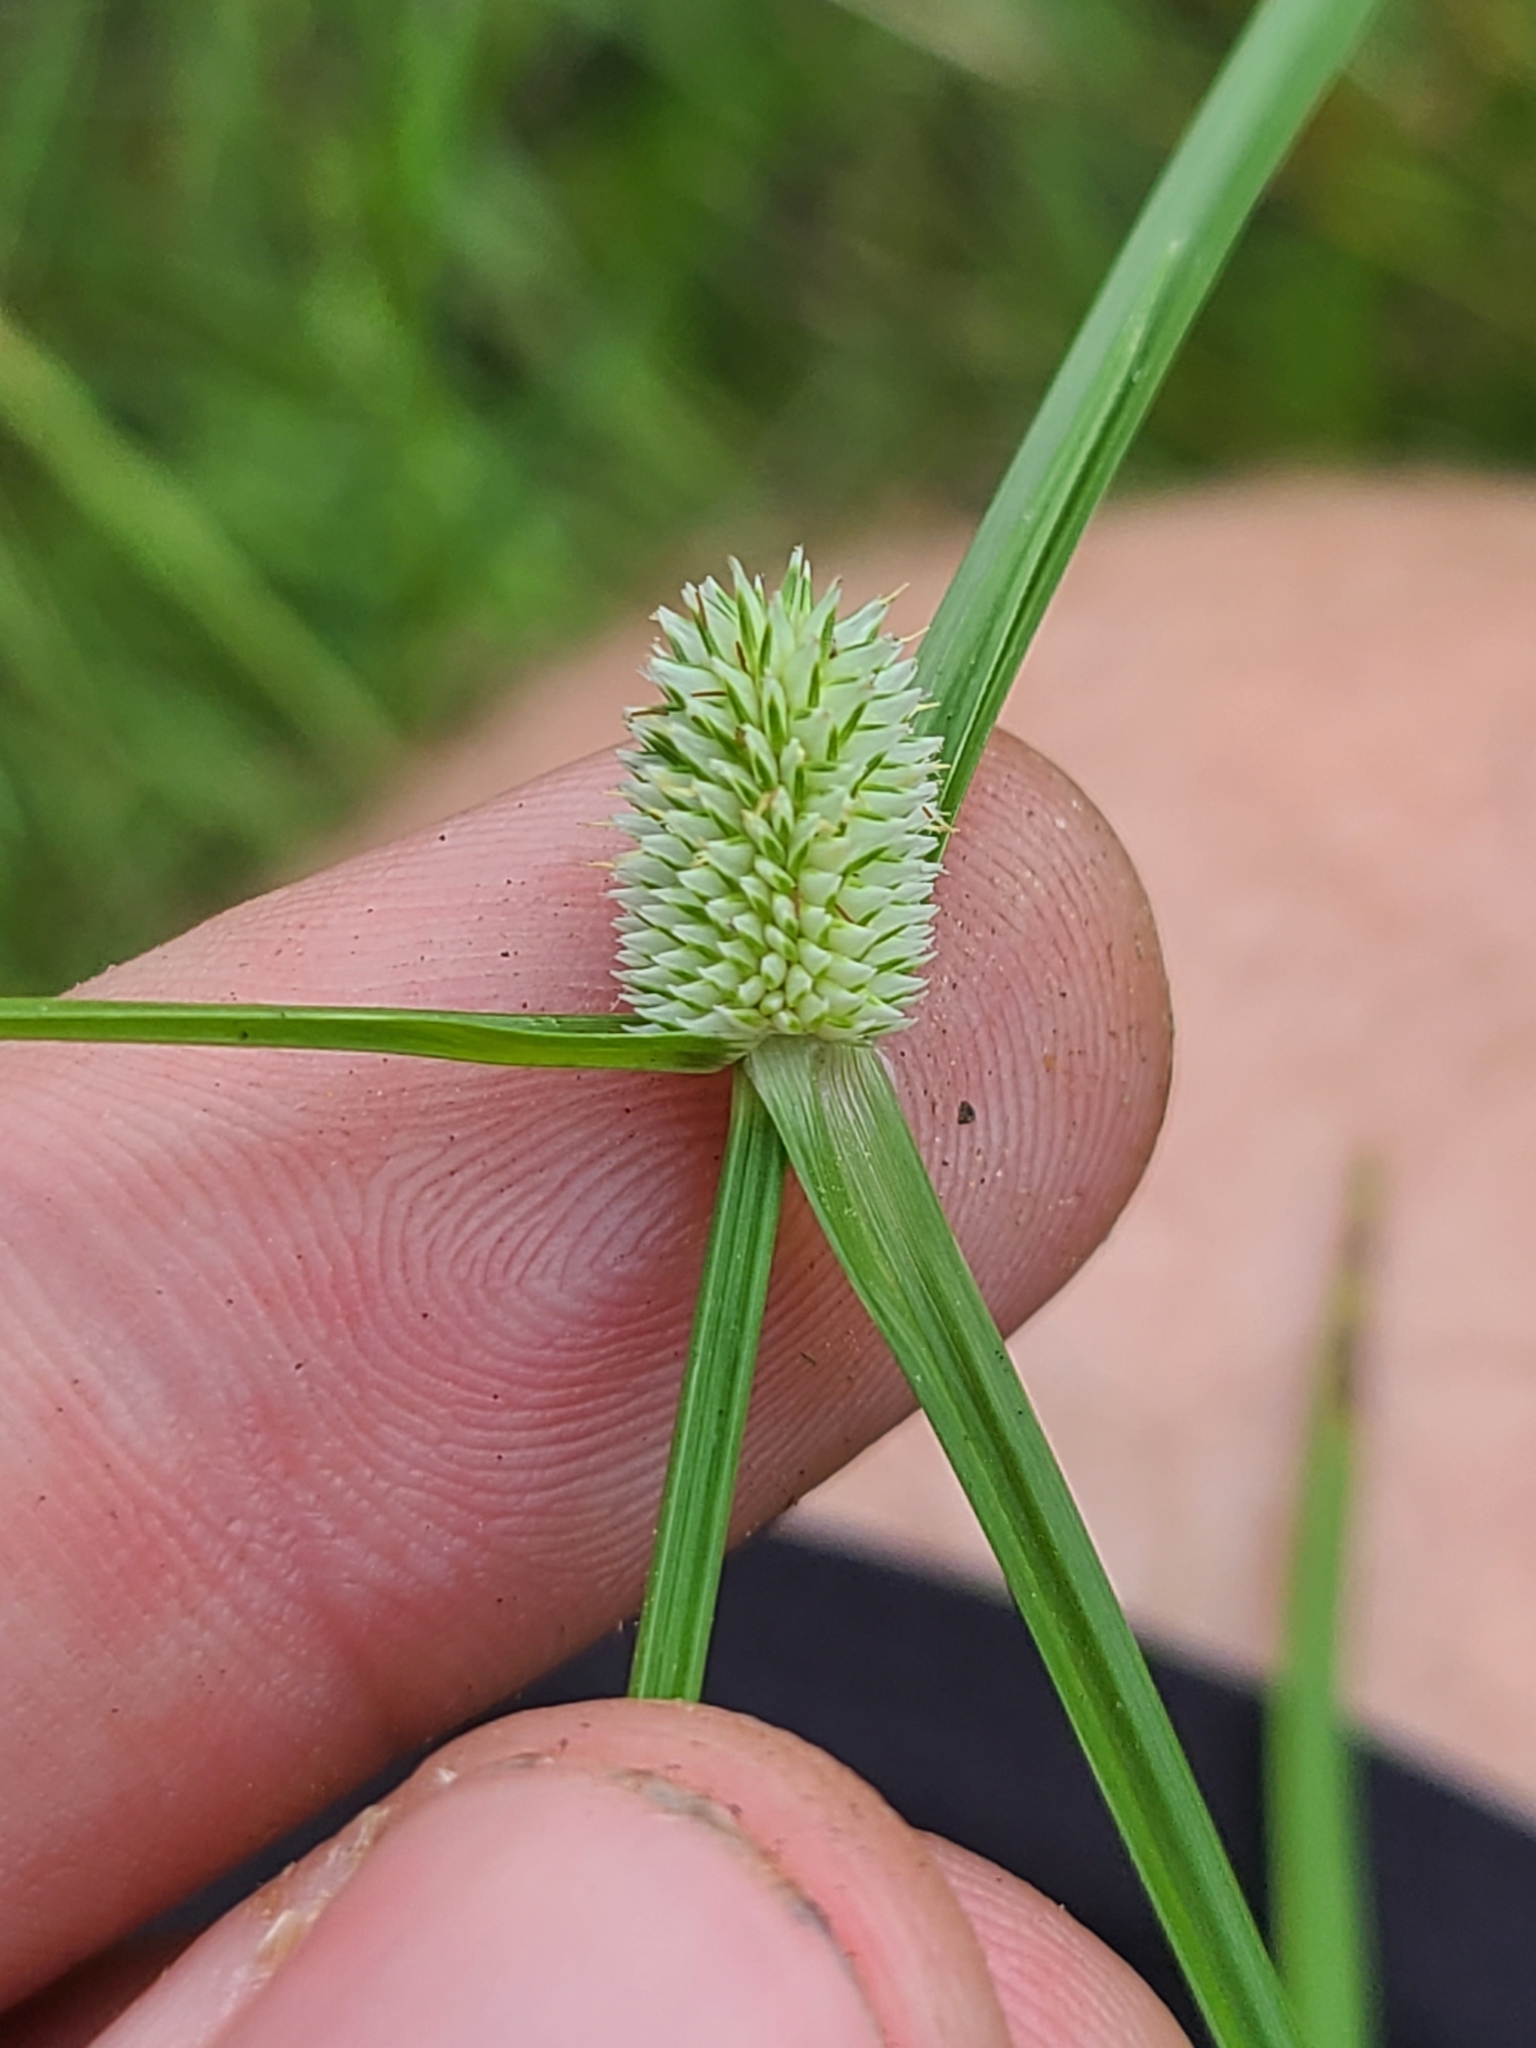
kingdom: Plantae
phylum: Tracheophyta
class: Liliopsida
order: Poales
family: Cyperaceae
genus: Cyperus
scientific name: Cyperus sesquiflorus
